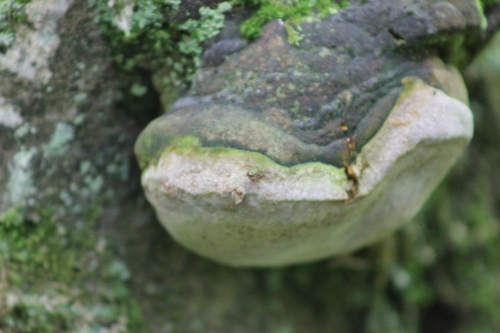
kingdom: Fungi
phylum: Basidiomycota
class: Agaricomycetes
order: Hymenochaetales
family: Hymenochaetaceae
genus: Phellinus
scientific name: Phellinus hartigii
